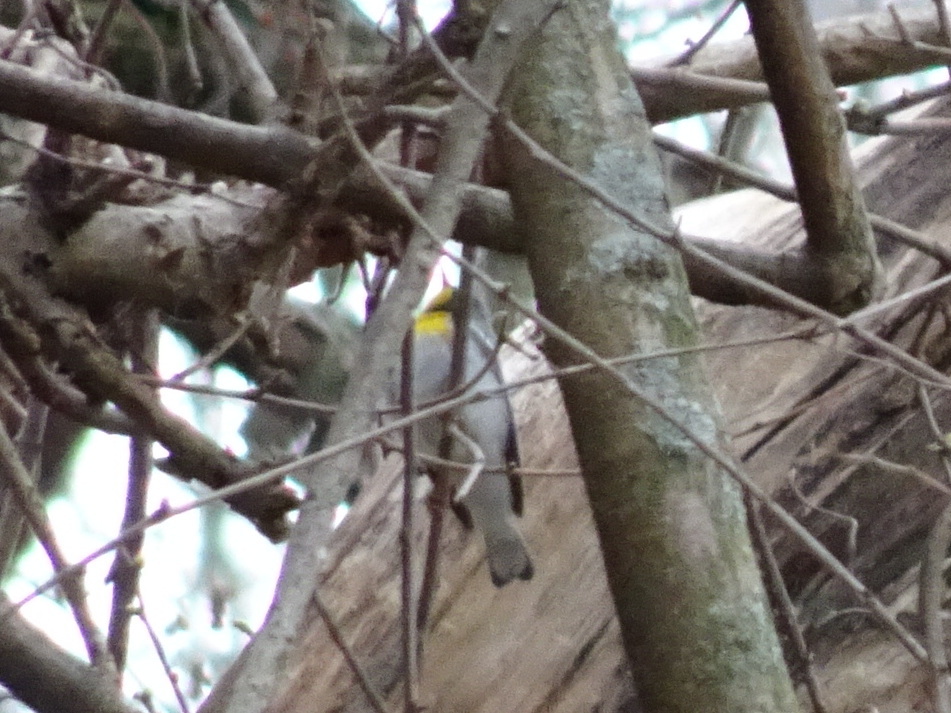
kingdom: Animalia
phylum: Chordata
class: Aves
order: Passeriformes
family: Parulidae
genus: Setophaga
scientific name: Setophaga americana
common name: Northern parula
